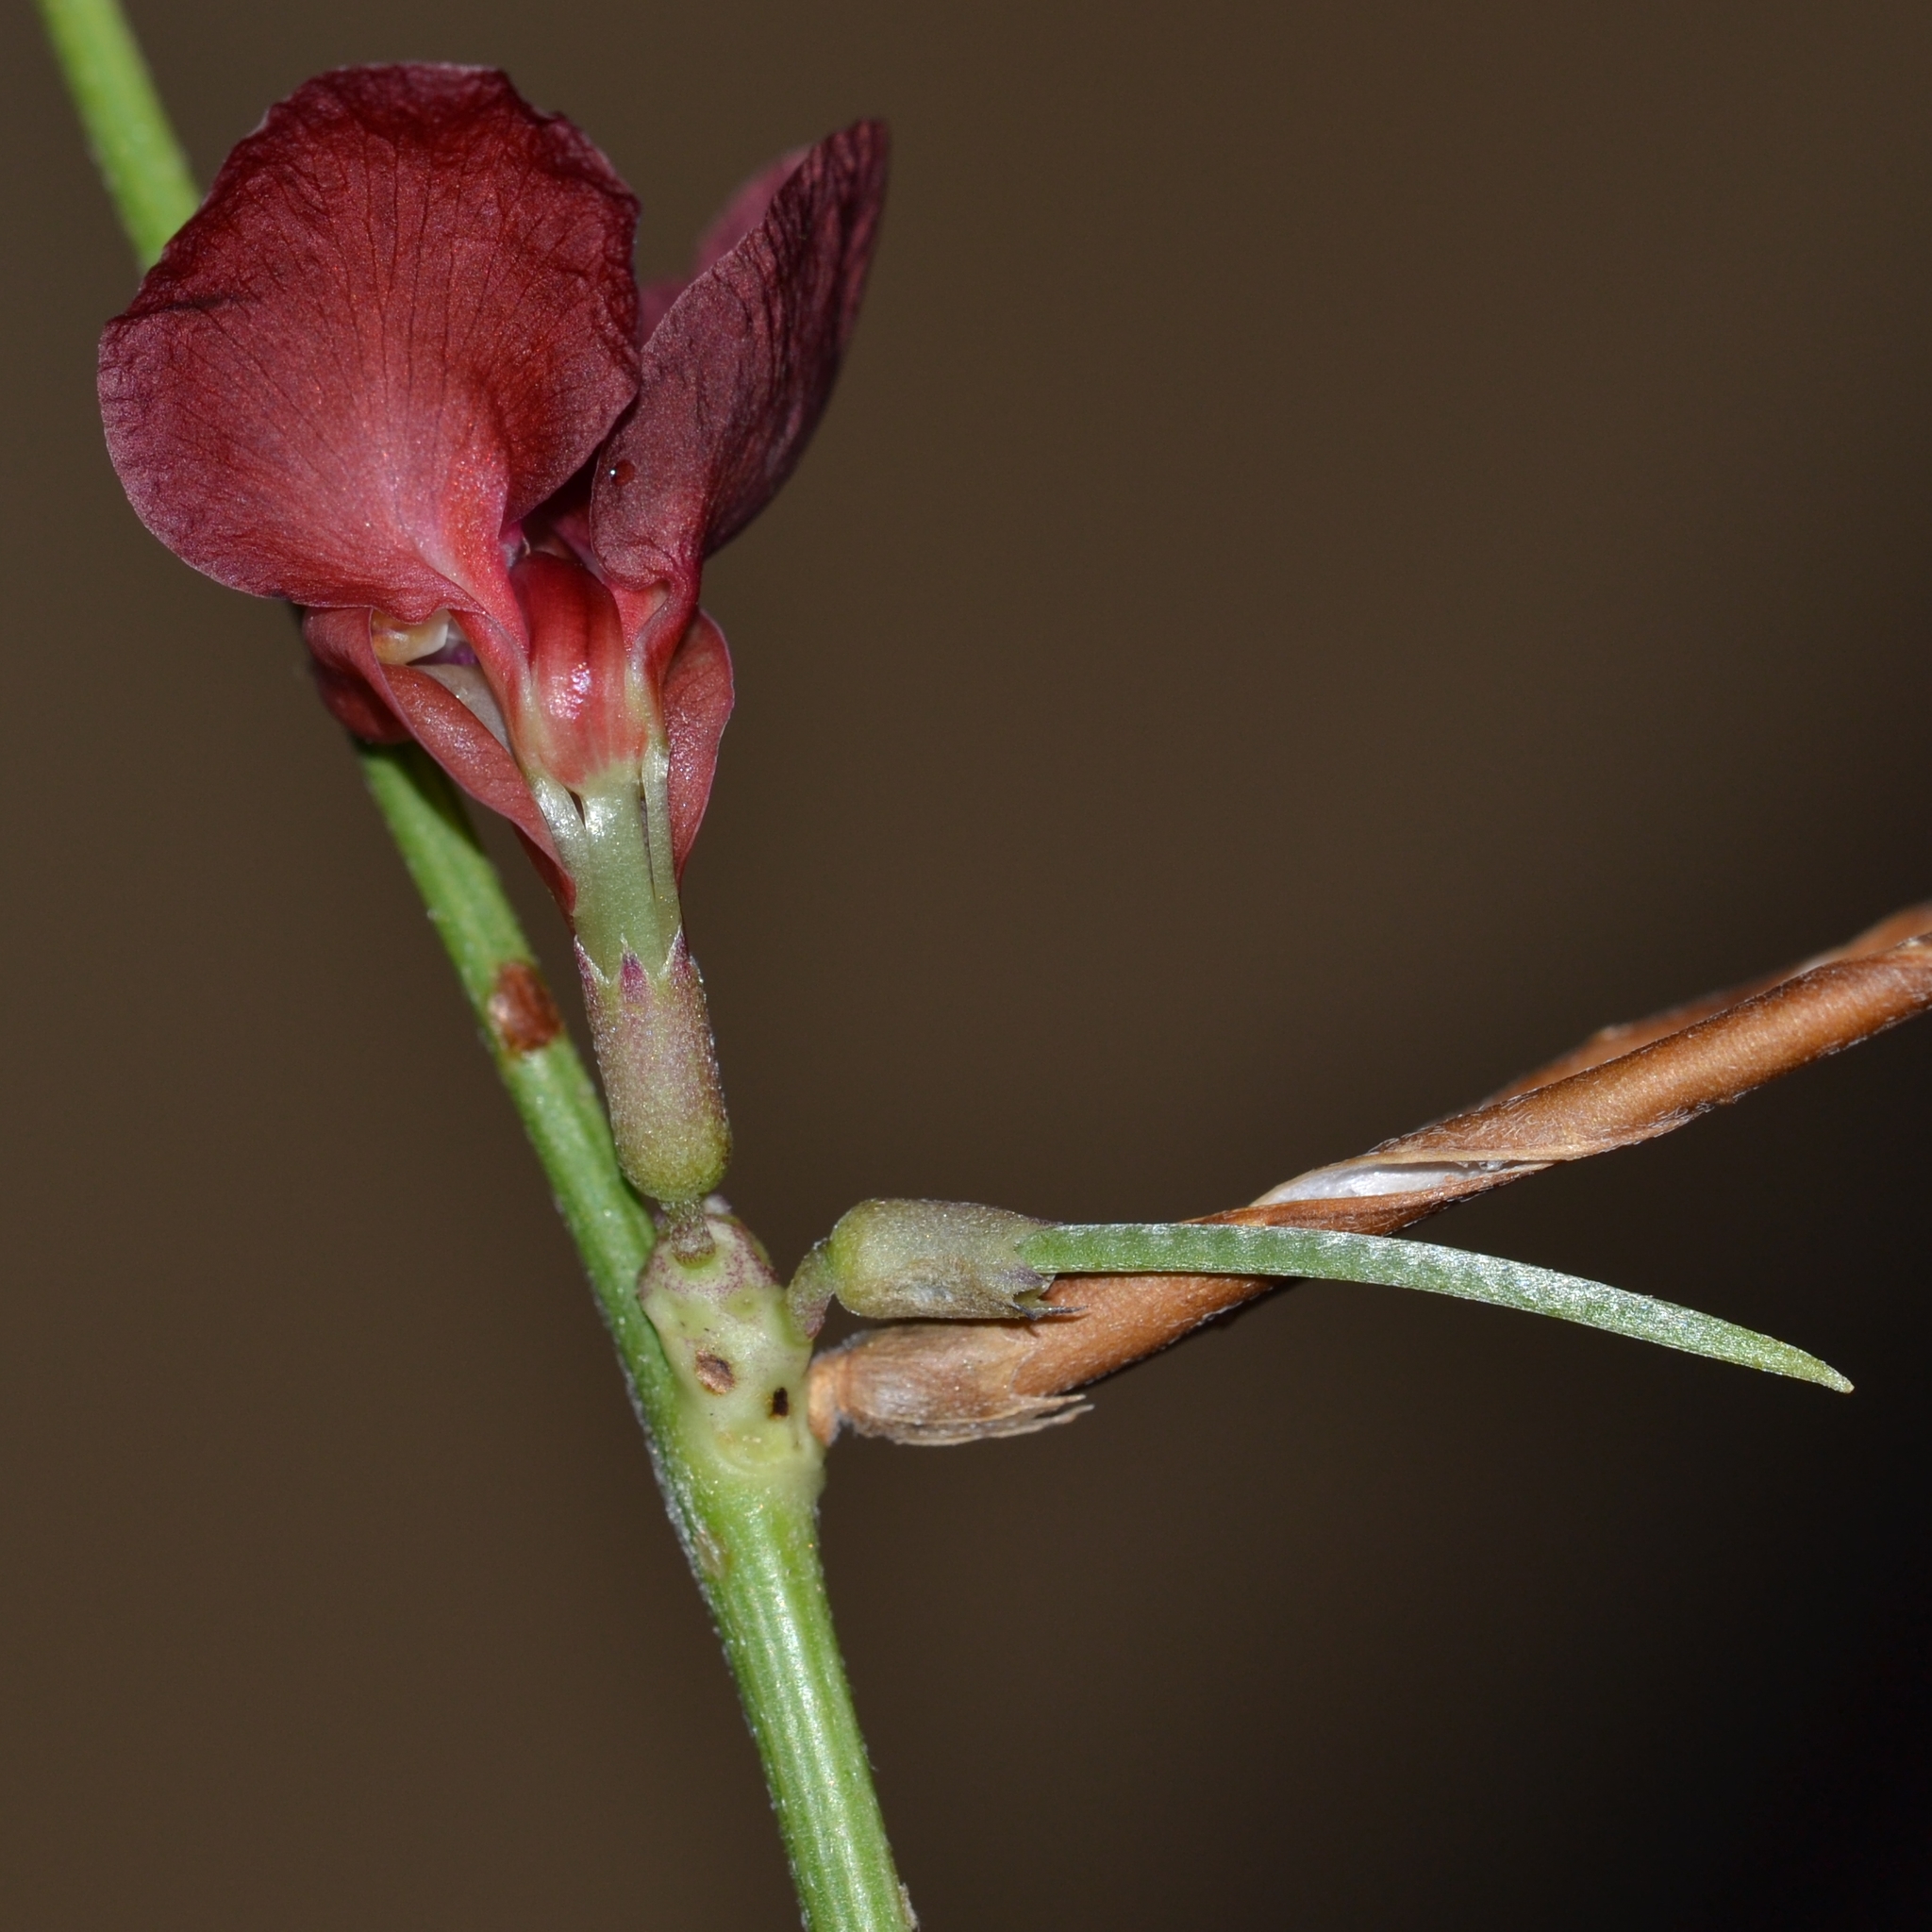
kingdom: Plantae
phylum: Tracheophyta
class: Magnoliopsida
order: Fabales
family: Fabaceae
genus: Macroptilium
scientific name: Macroptilium lathyroides
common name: Wild bushbean
